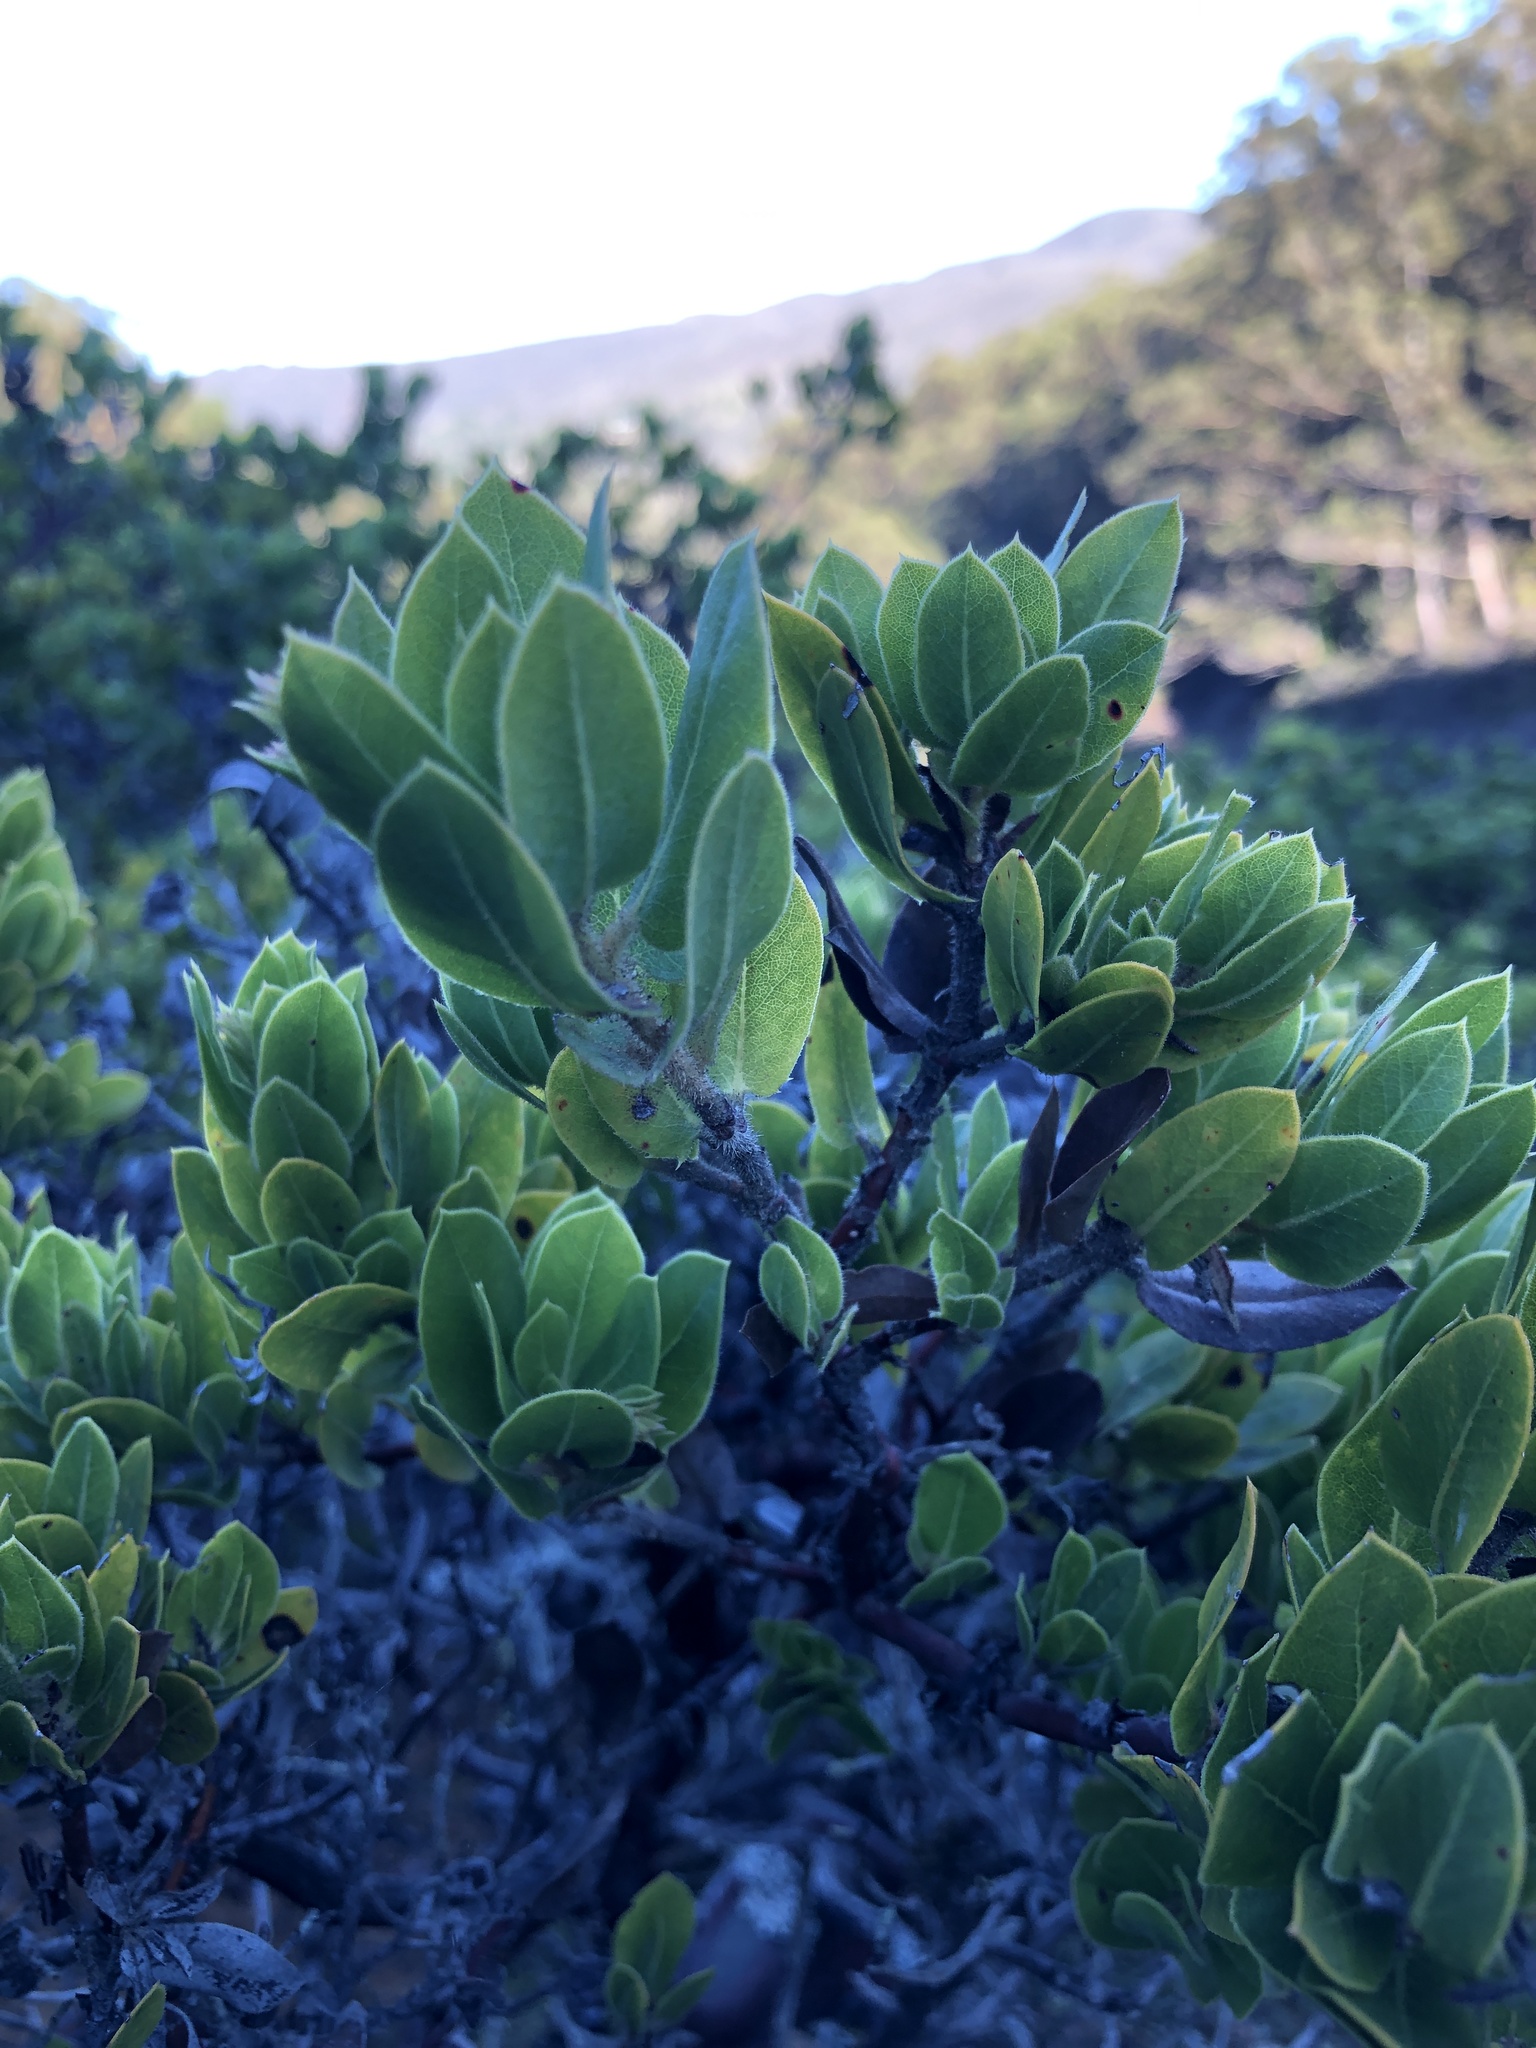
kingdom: Plantae
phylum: Tracheophyta
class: Magnoliopsida
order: Ericales
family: Ericaceae
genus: Arctostaphylos
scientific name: Arctostaphylos montaraensis
